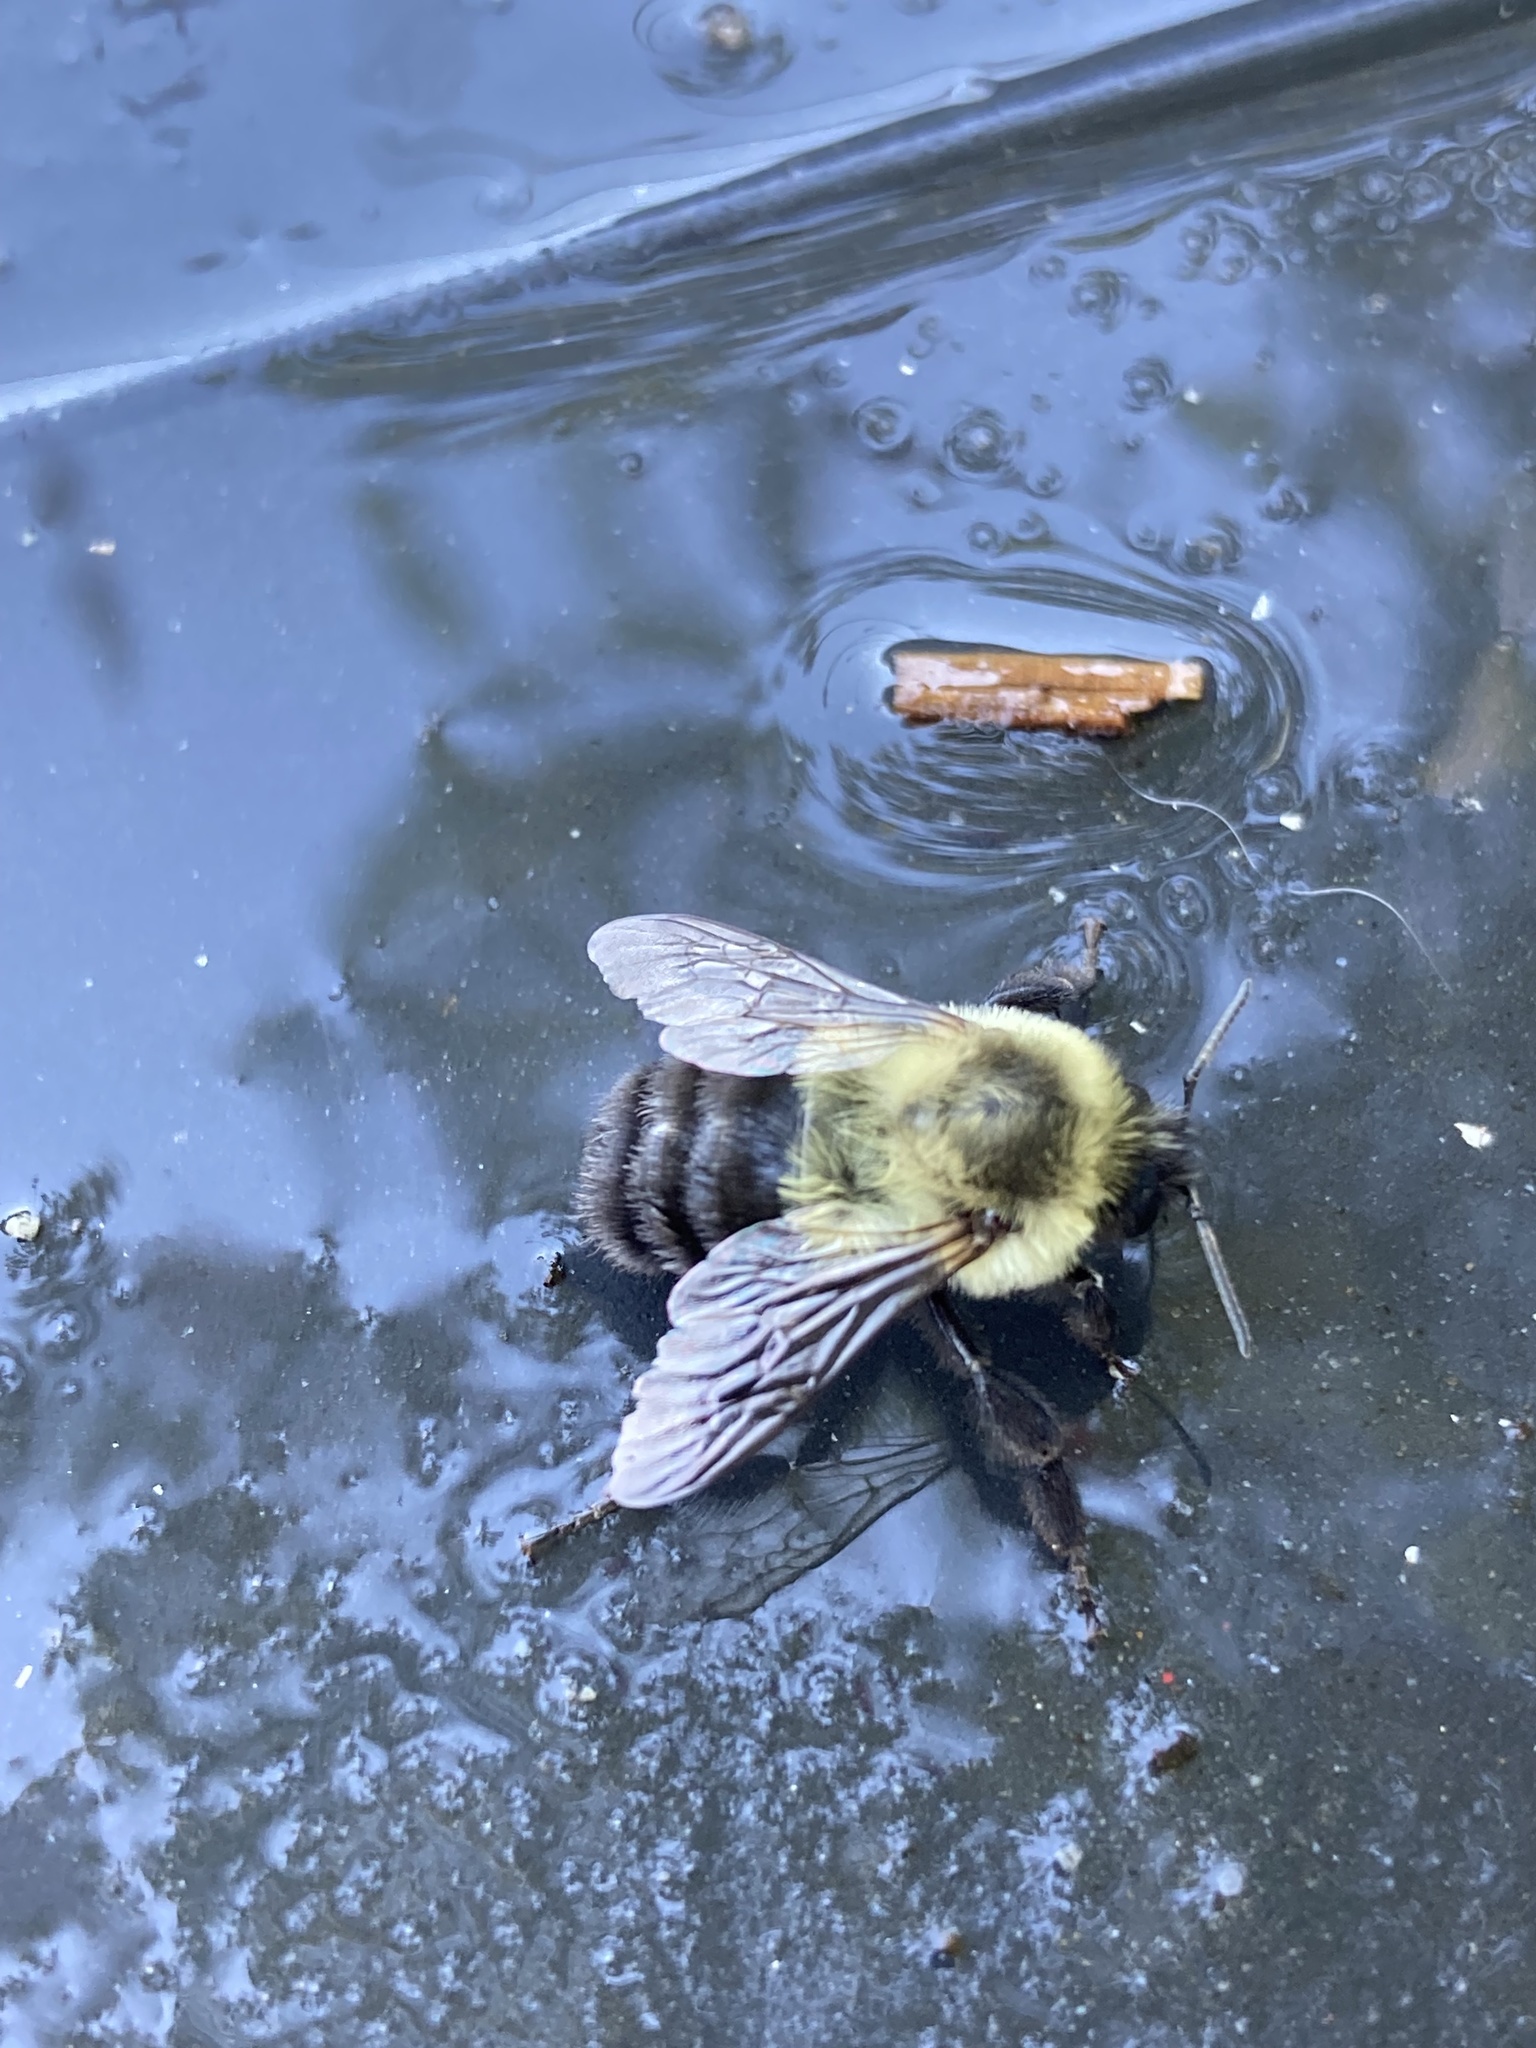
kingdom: Animalia
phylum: Arthropoda
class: Insecta
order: Hymenoptera
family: Apidae
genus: Bombus
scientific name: Bombus impatiens
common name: Common eastern bumble bee
